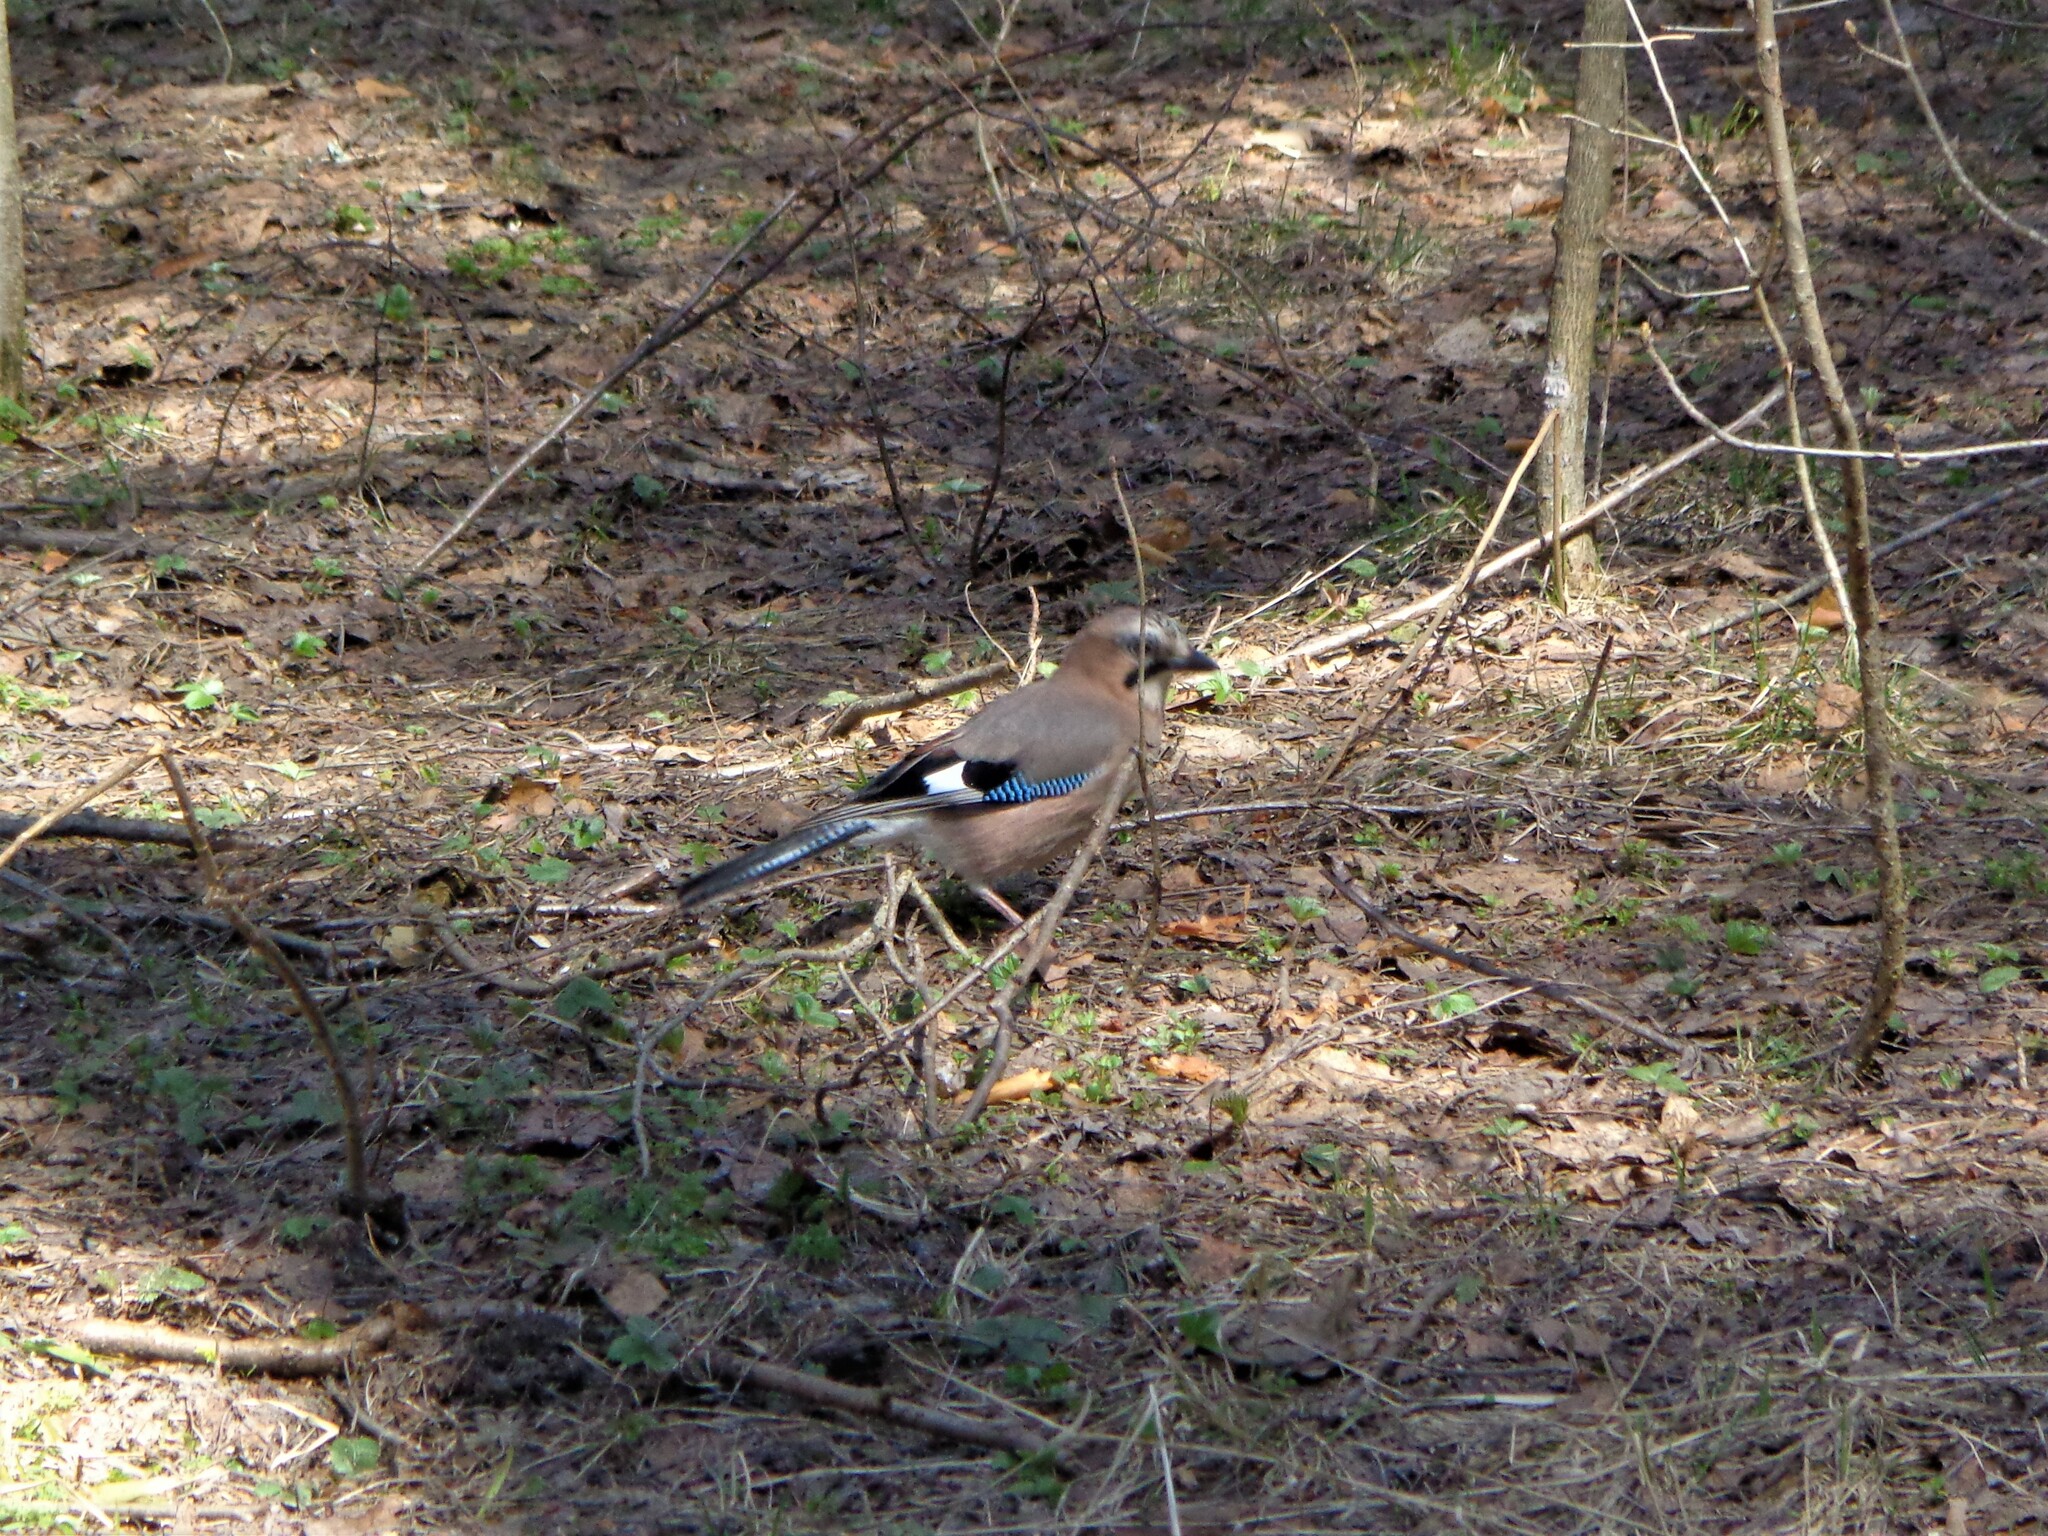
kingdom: Animalia
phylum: Chordata
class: Aves
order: Passeriformes
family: Corvidae
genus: Garrulus
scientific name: Garrulus glandarius
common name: Eurasian jay
